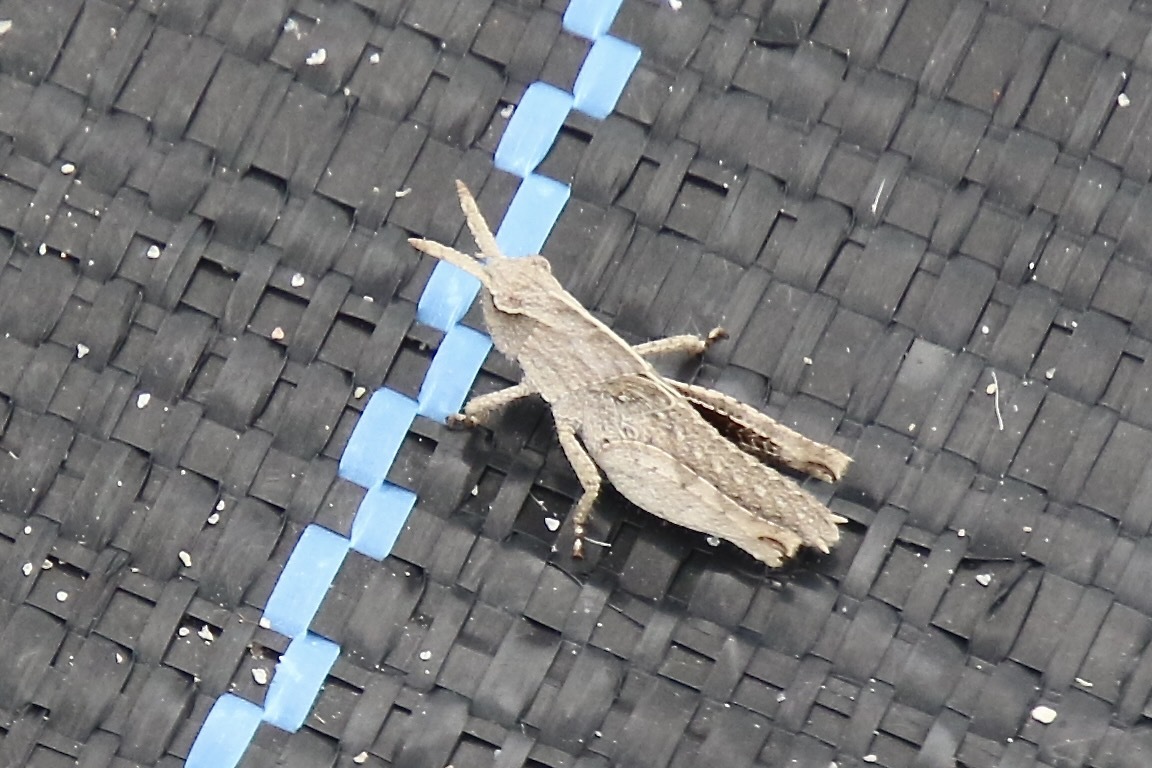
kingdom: Animalia
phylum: Arthropoda
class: Insecta
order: Orthoptera
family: Acrididae
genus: Chortophaga
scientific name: Chortophaga viridifasciata
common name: Green-striped grasshopper
